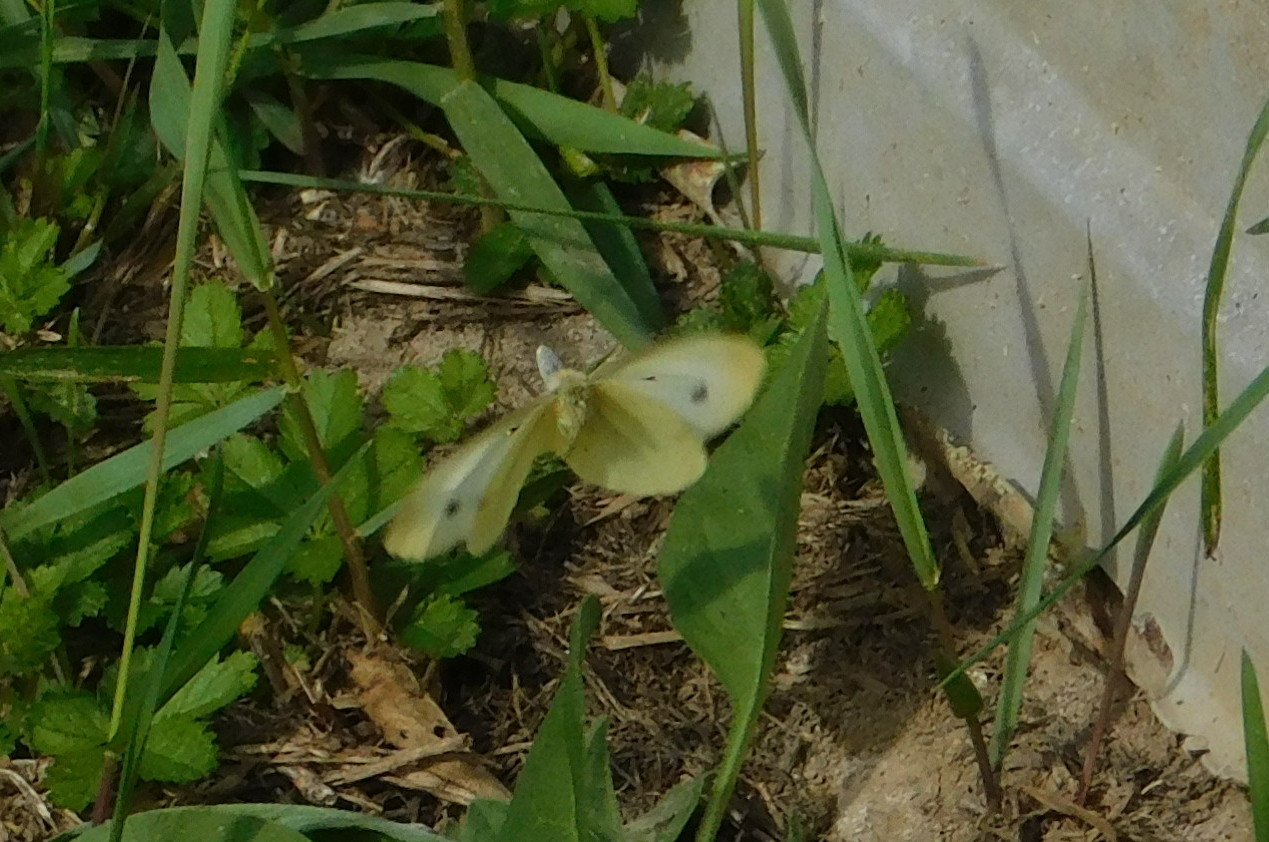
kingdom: Animalia
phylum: Arthropoda
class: Insecta
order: Lepidoptera
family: Pieridae
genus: Pieris
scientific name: Pieris rapae
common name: Small white
